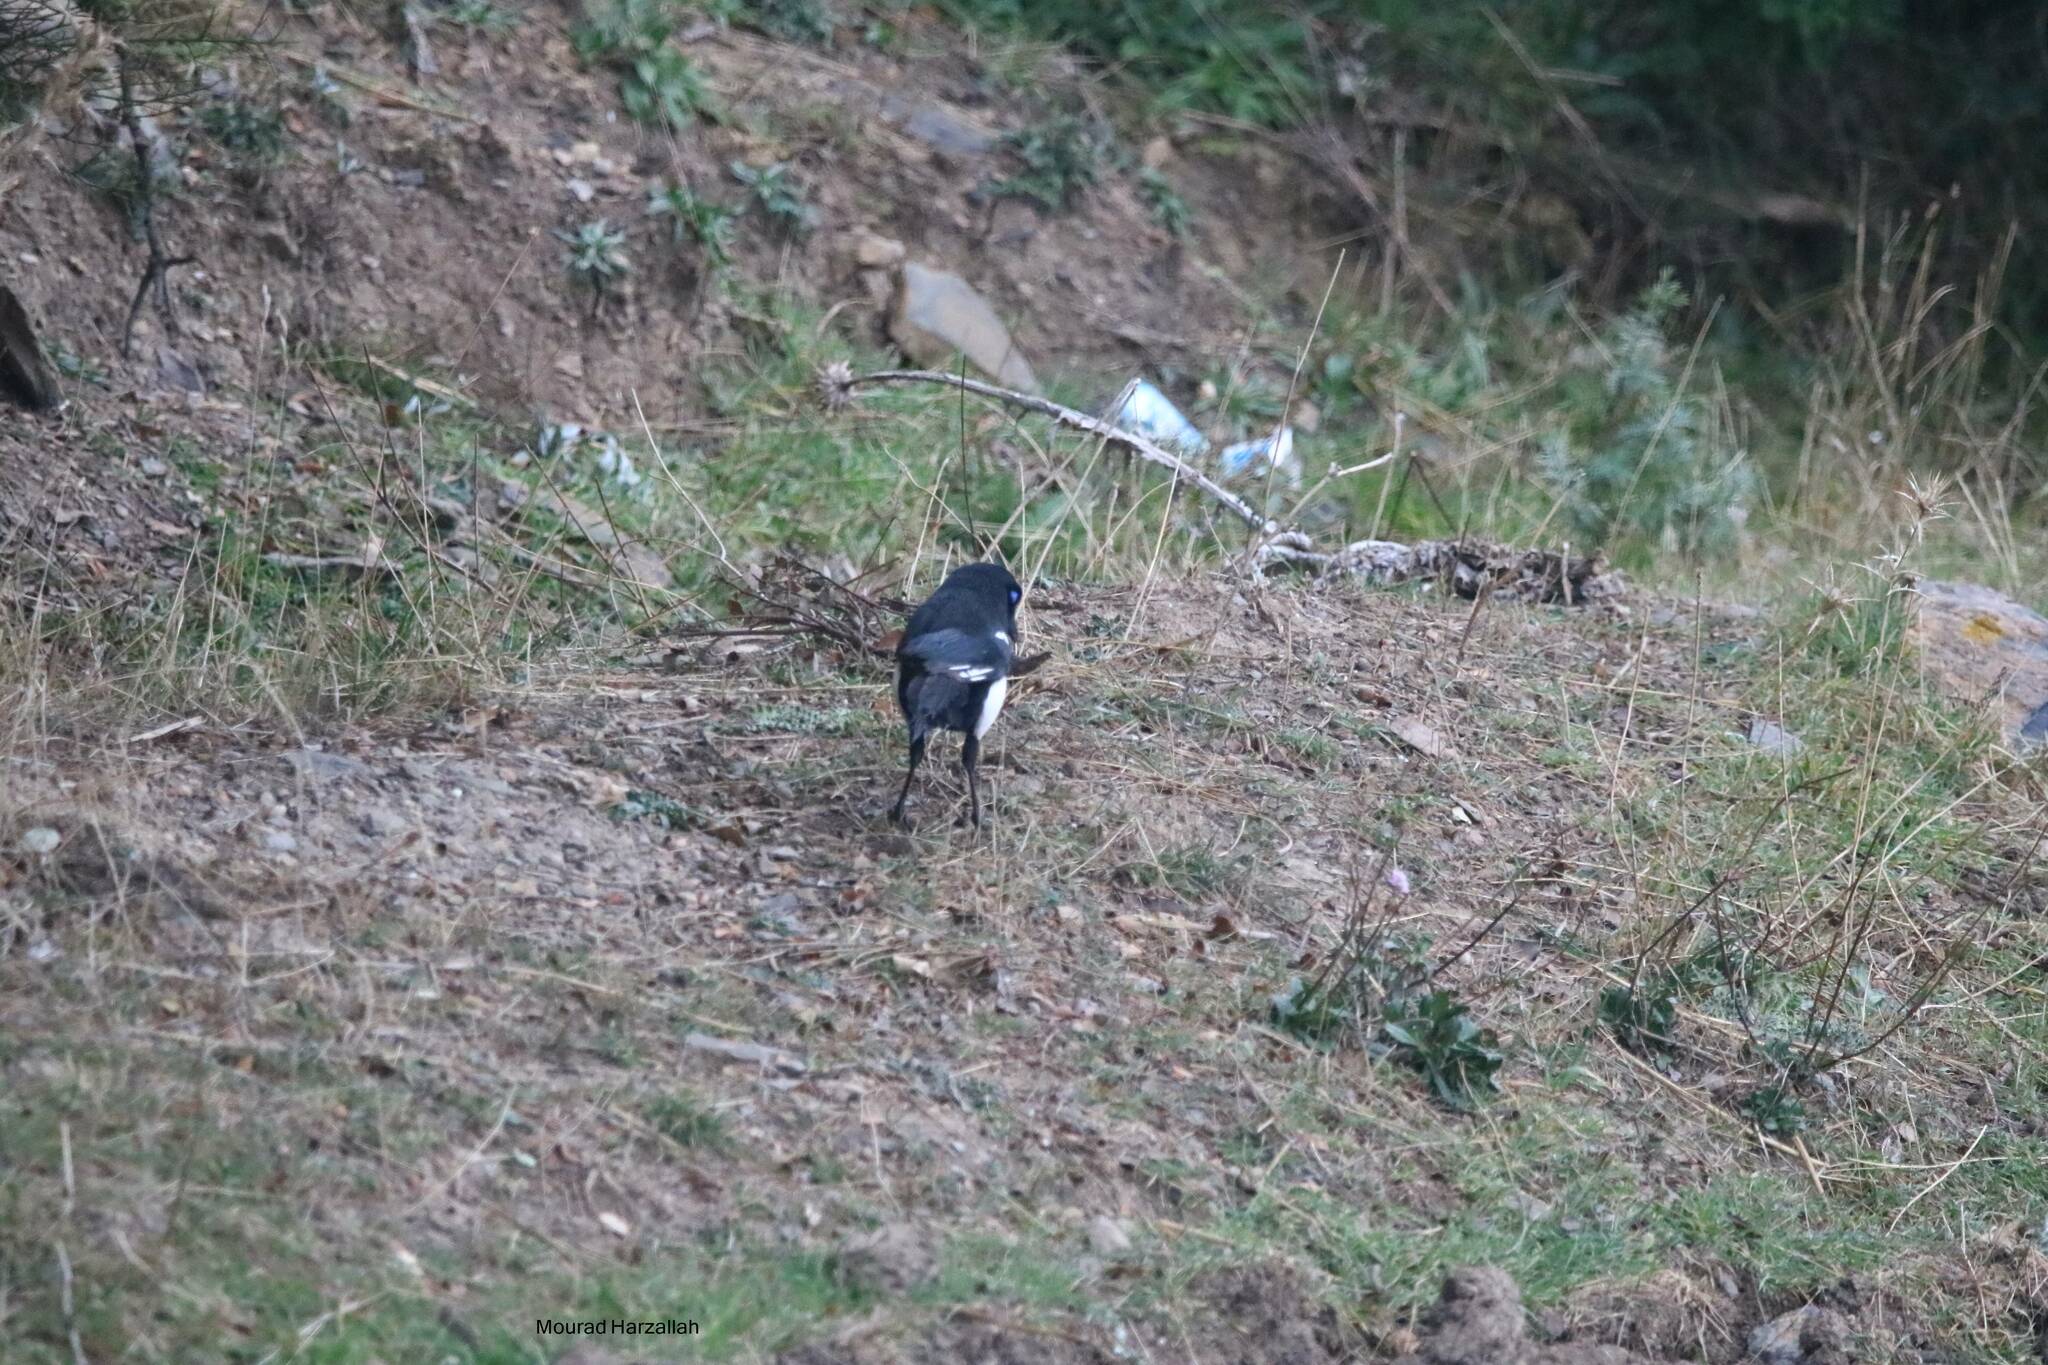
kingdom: Animalia
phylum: Chordata
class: Aves
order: Passeriformes
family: Corvidae
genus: Pica
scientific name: Pica mauritanica
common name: Maghreb magpie
